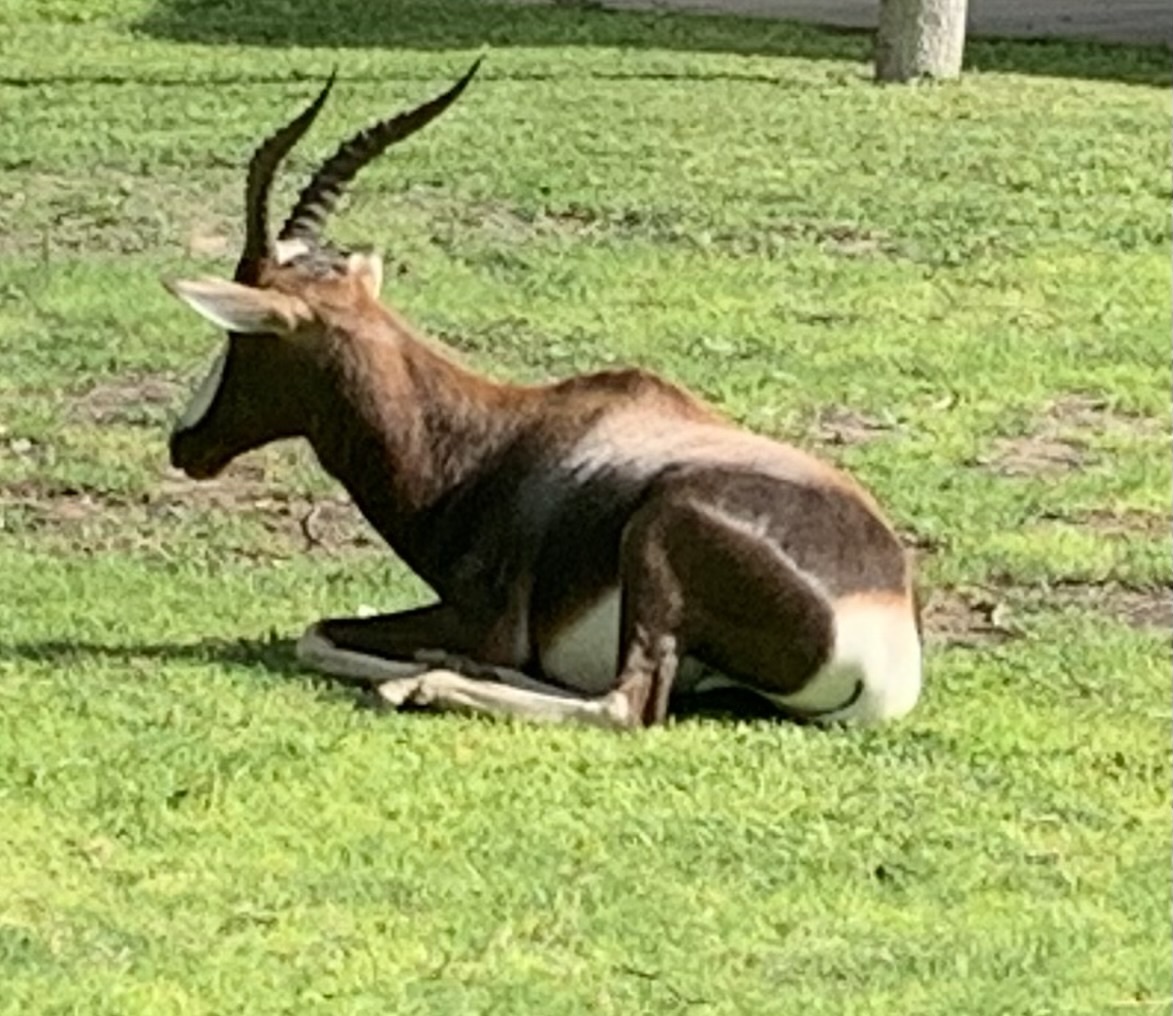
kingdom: Animalia
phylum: Chordata
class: Mammalia
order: Artiodactyla
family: Bovidae
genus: Damaliscus
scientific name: Damaliscus pygargus
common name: Bontebok
